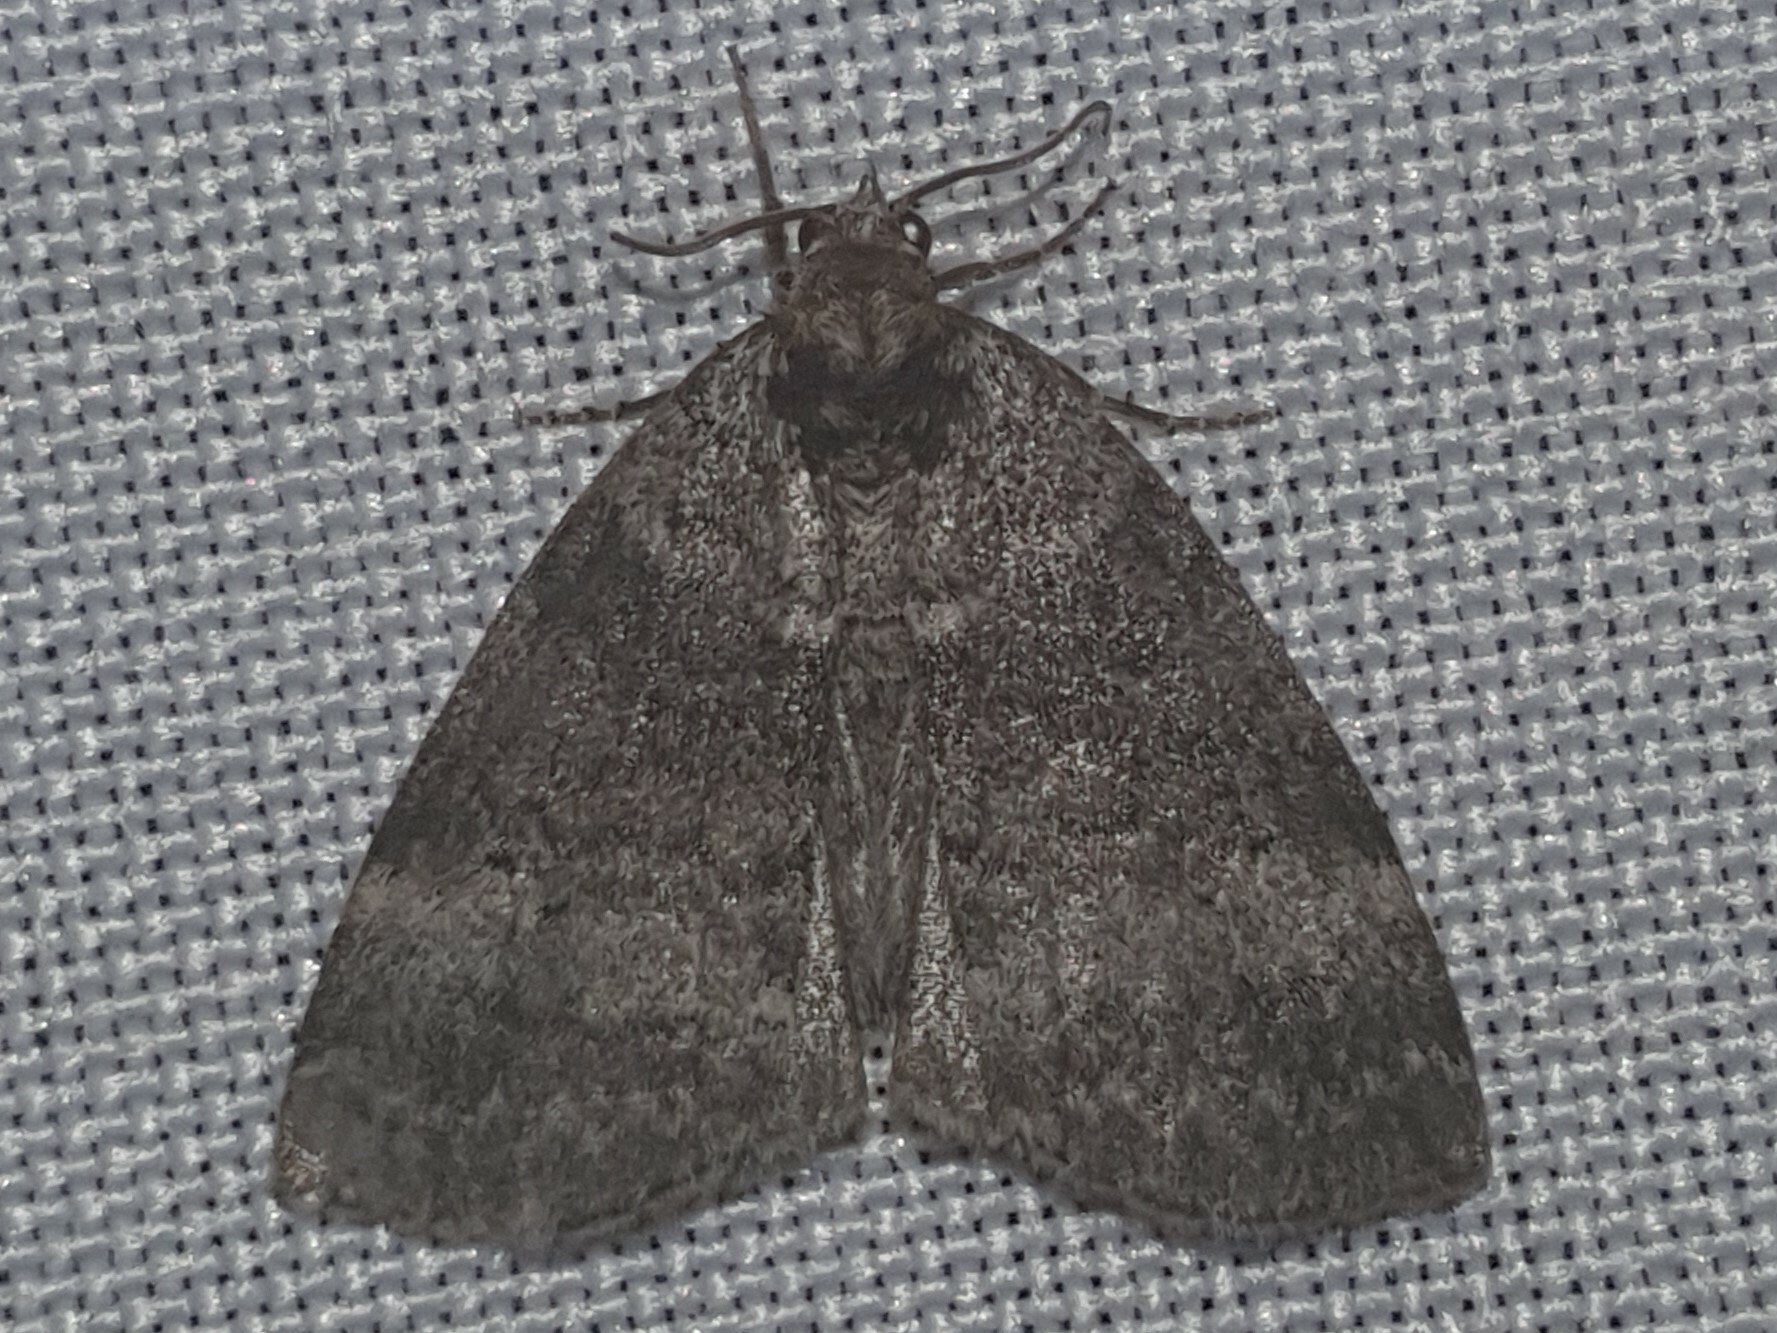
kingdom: Animalia
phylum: Arthropoda
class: Insecta
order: Lepidoptera
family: Drepanidae
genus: Ochropacha
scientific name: Ochropacha duplaris
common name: Common lutestring
